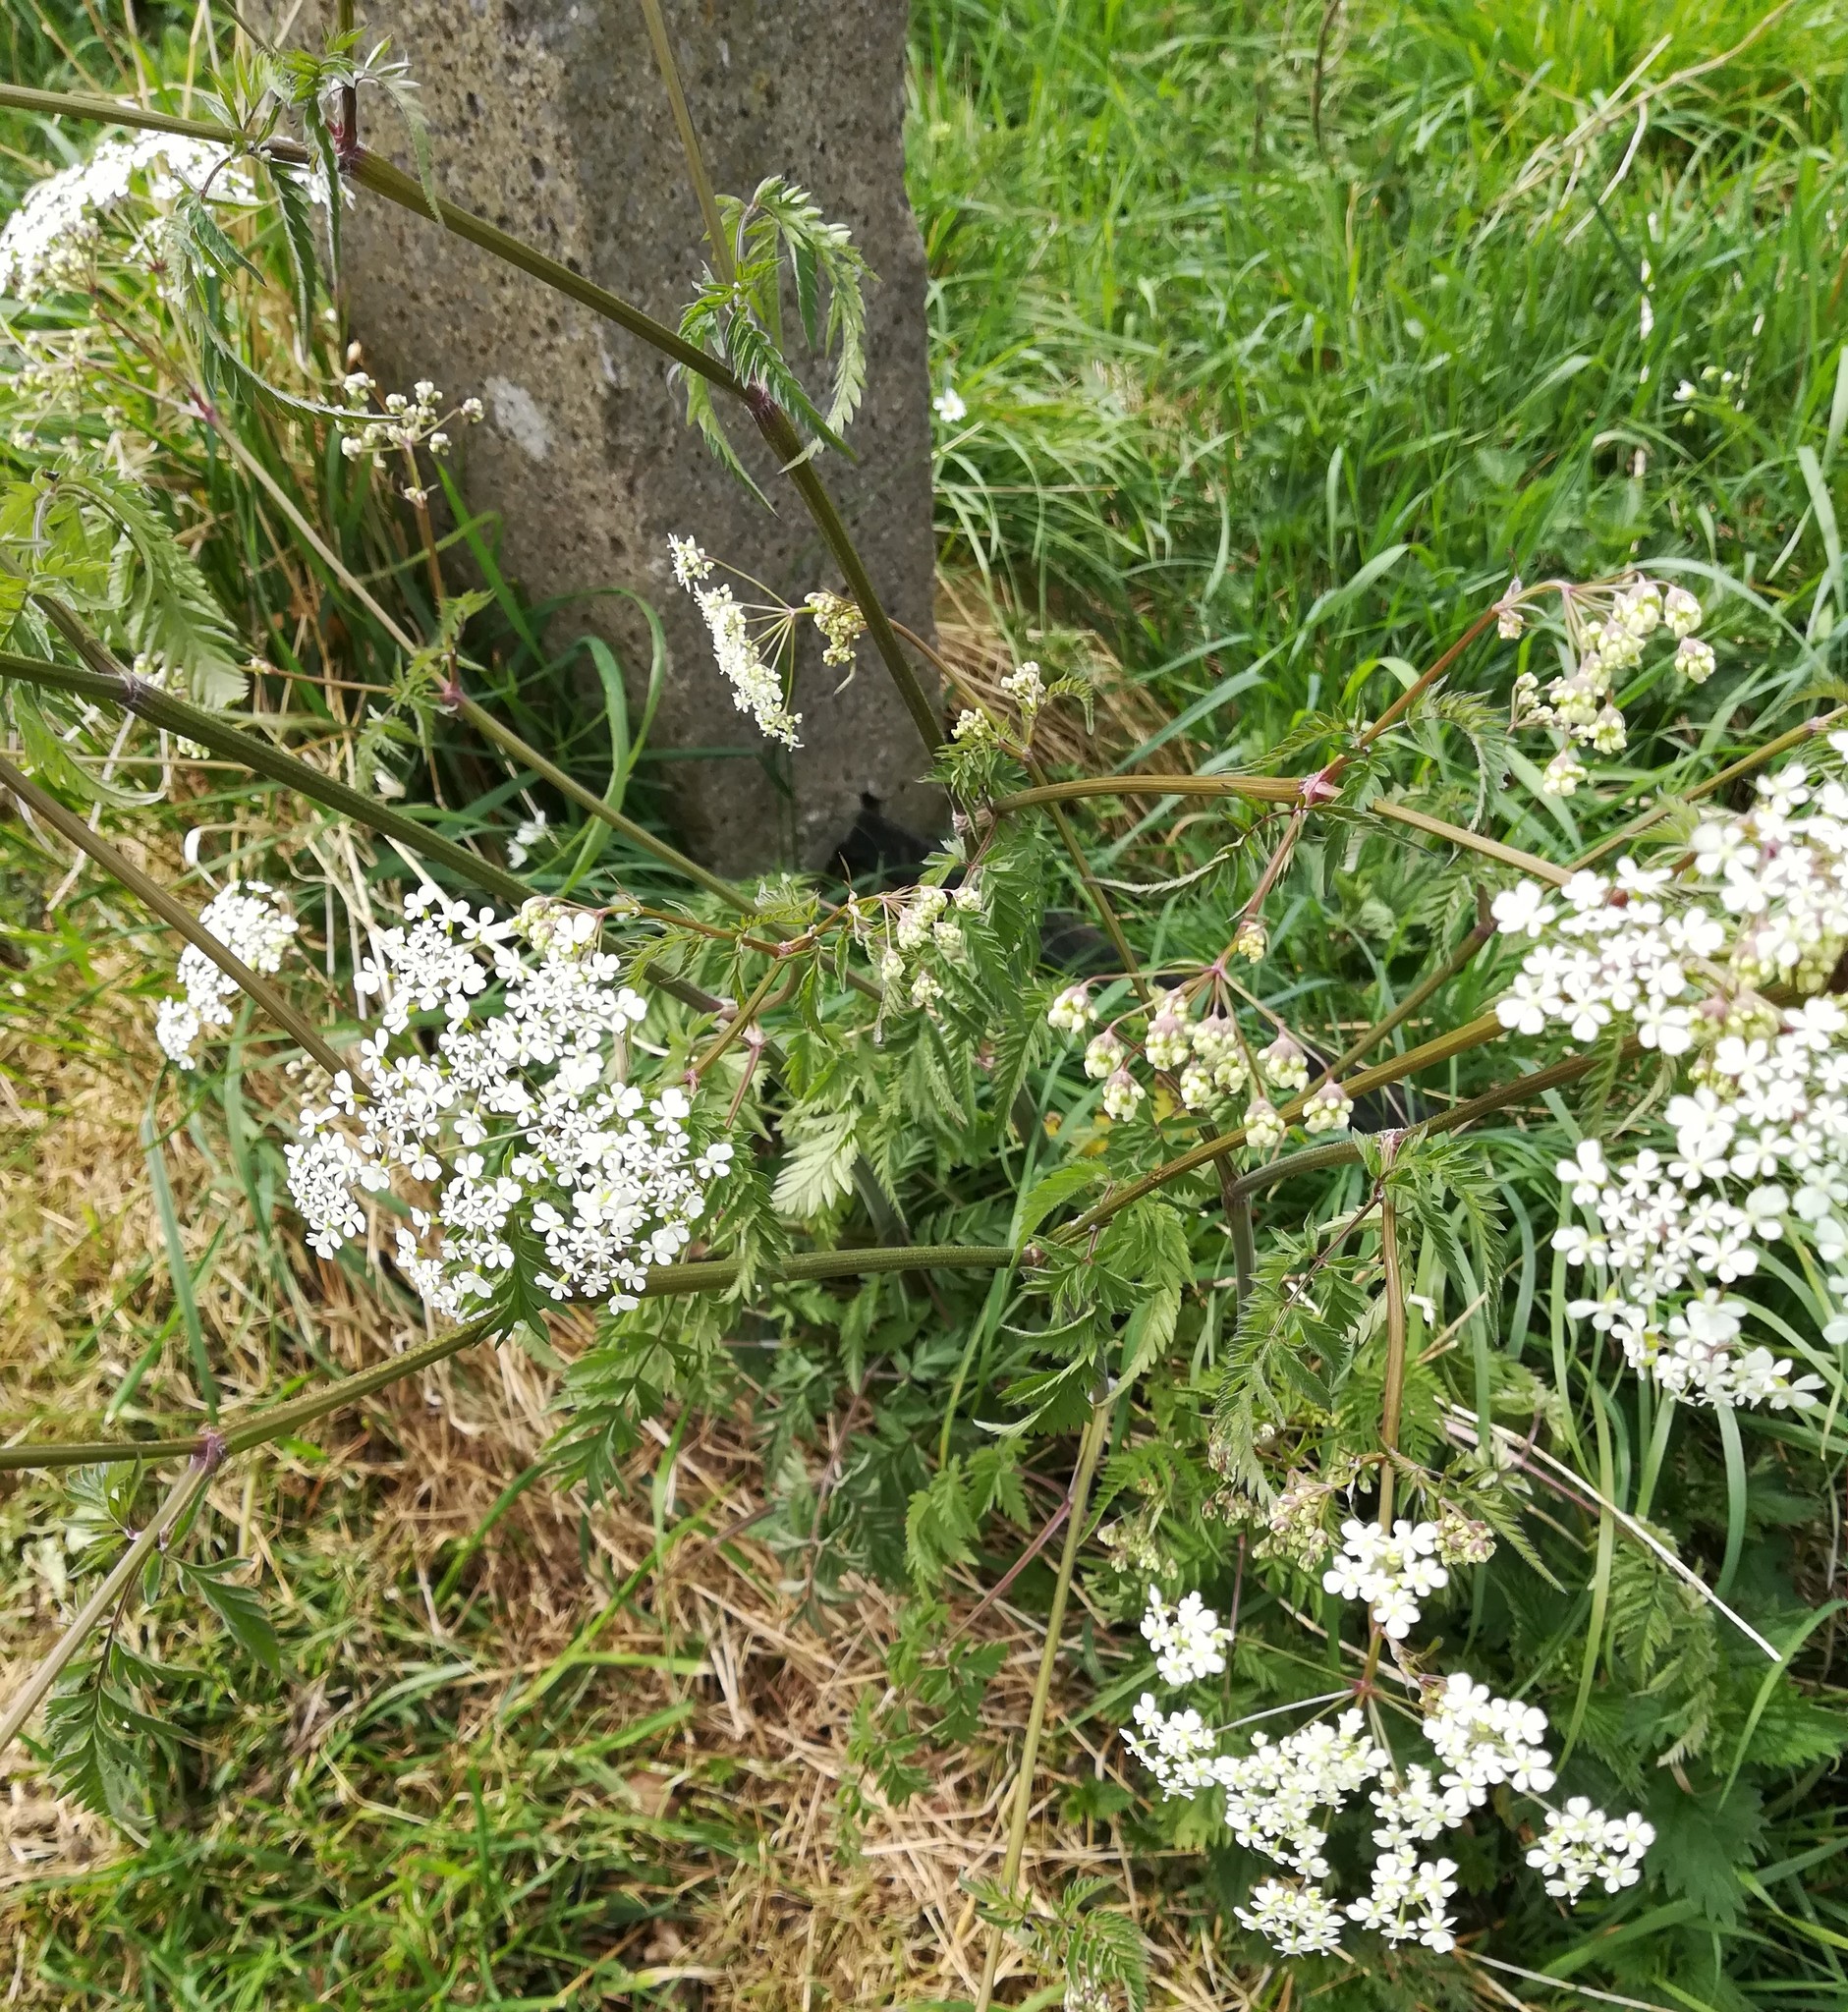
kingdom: Plantae
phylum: Tracheophyta
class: Magnoliopsida
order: Apiales
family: Apiaceae
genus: Anthriscus
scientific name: Anthriscus sylvestris
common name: Cow parsley
